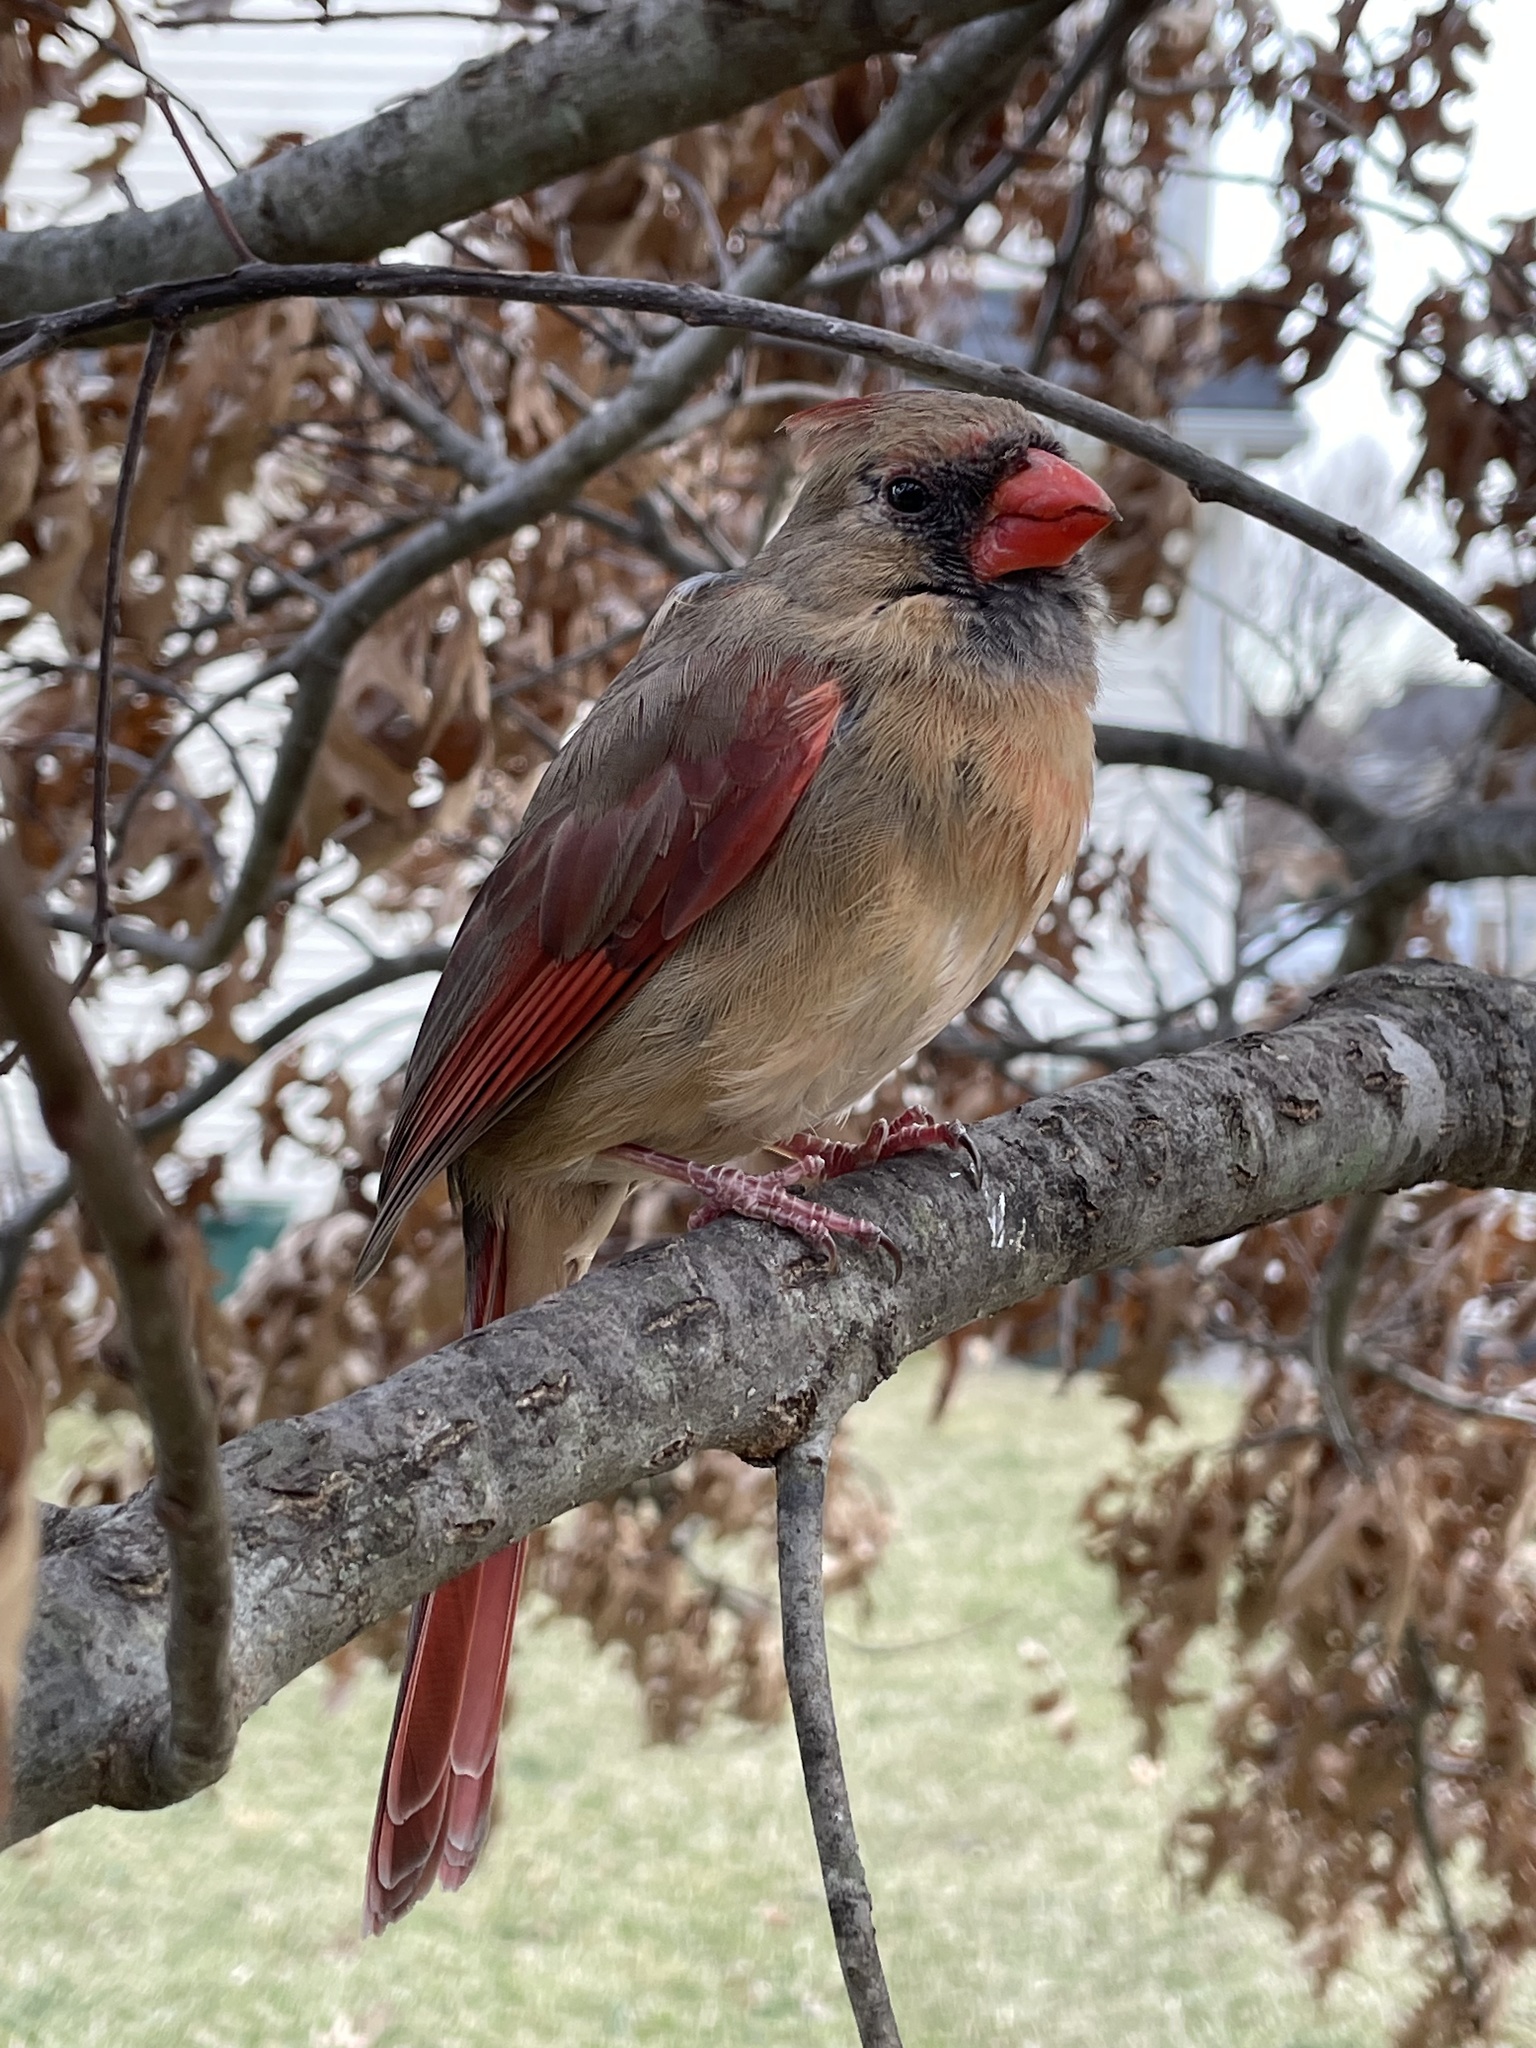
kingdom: Animalia
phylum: Chordata
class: Aves
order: Passeriformes
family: Cardinalidae
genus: Cardinalis
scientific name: Cardinalis cardinalis
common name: Northern cardinal
